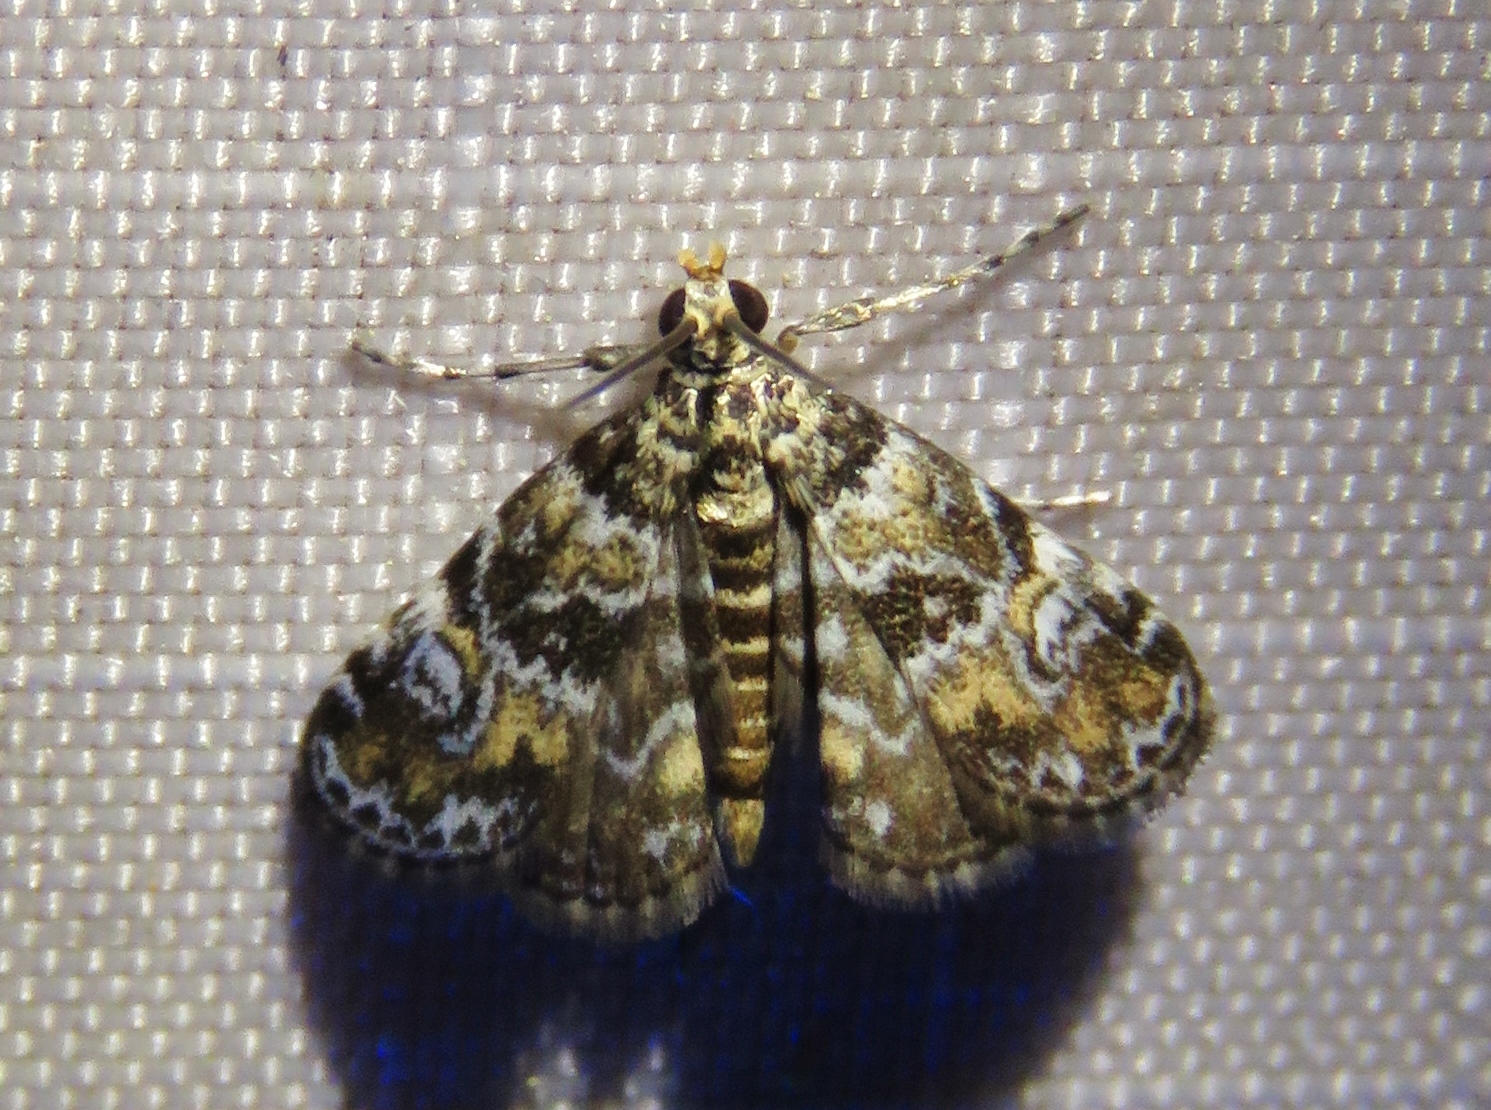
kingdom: Animalia
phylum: Arthropoda
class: Insecta
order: Lepidoptera
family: Crambidae
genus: Elophila
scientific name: Elophila obliteralis
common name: Waterlily leafcutter moth
